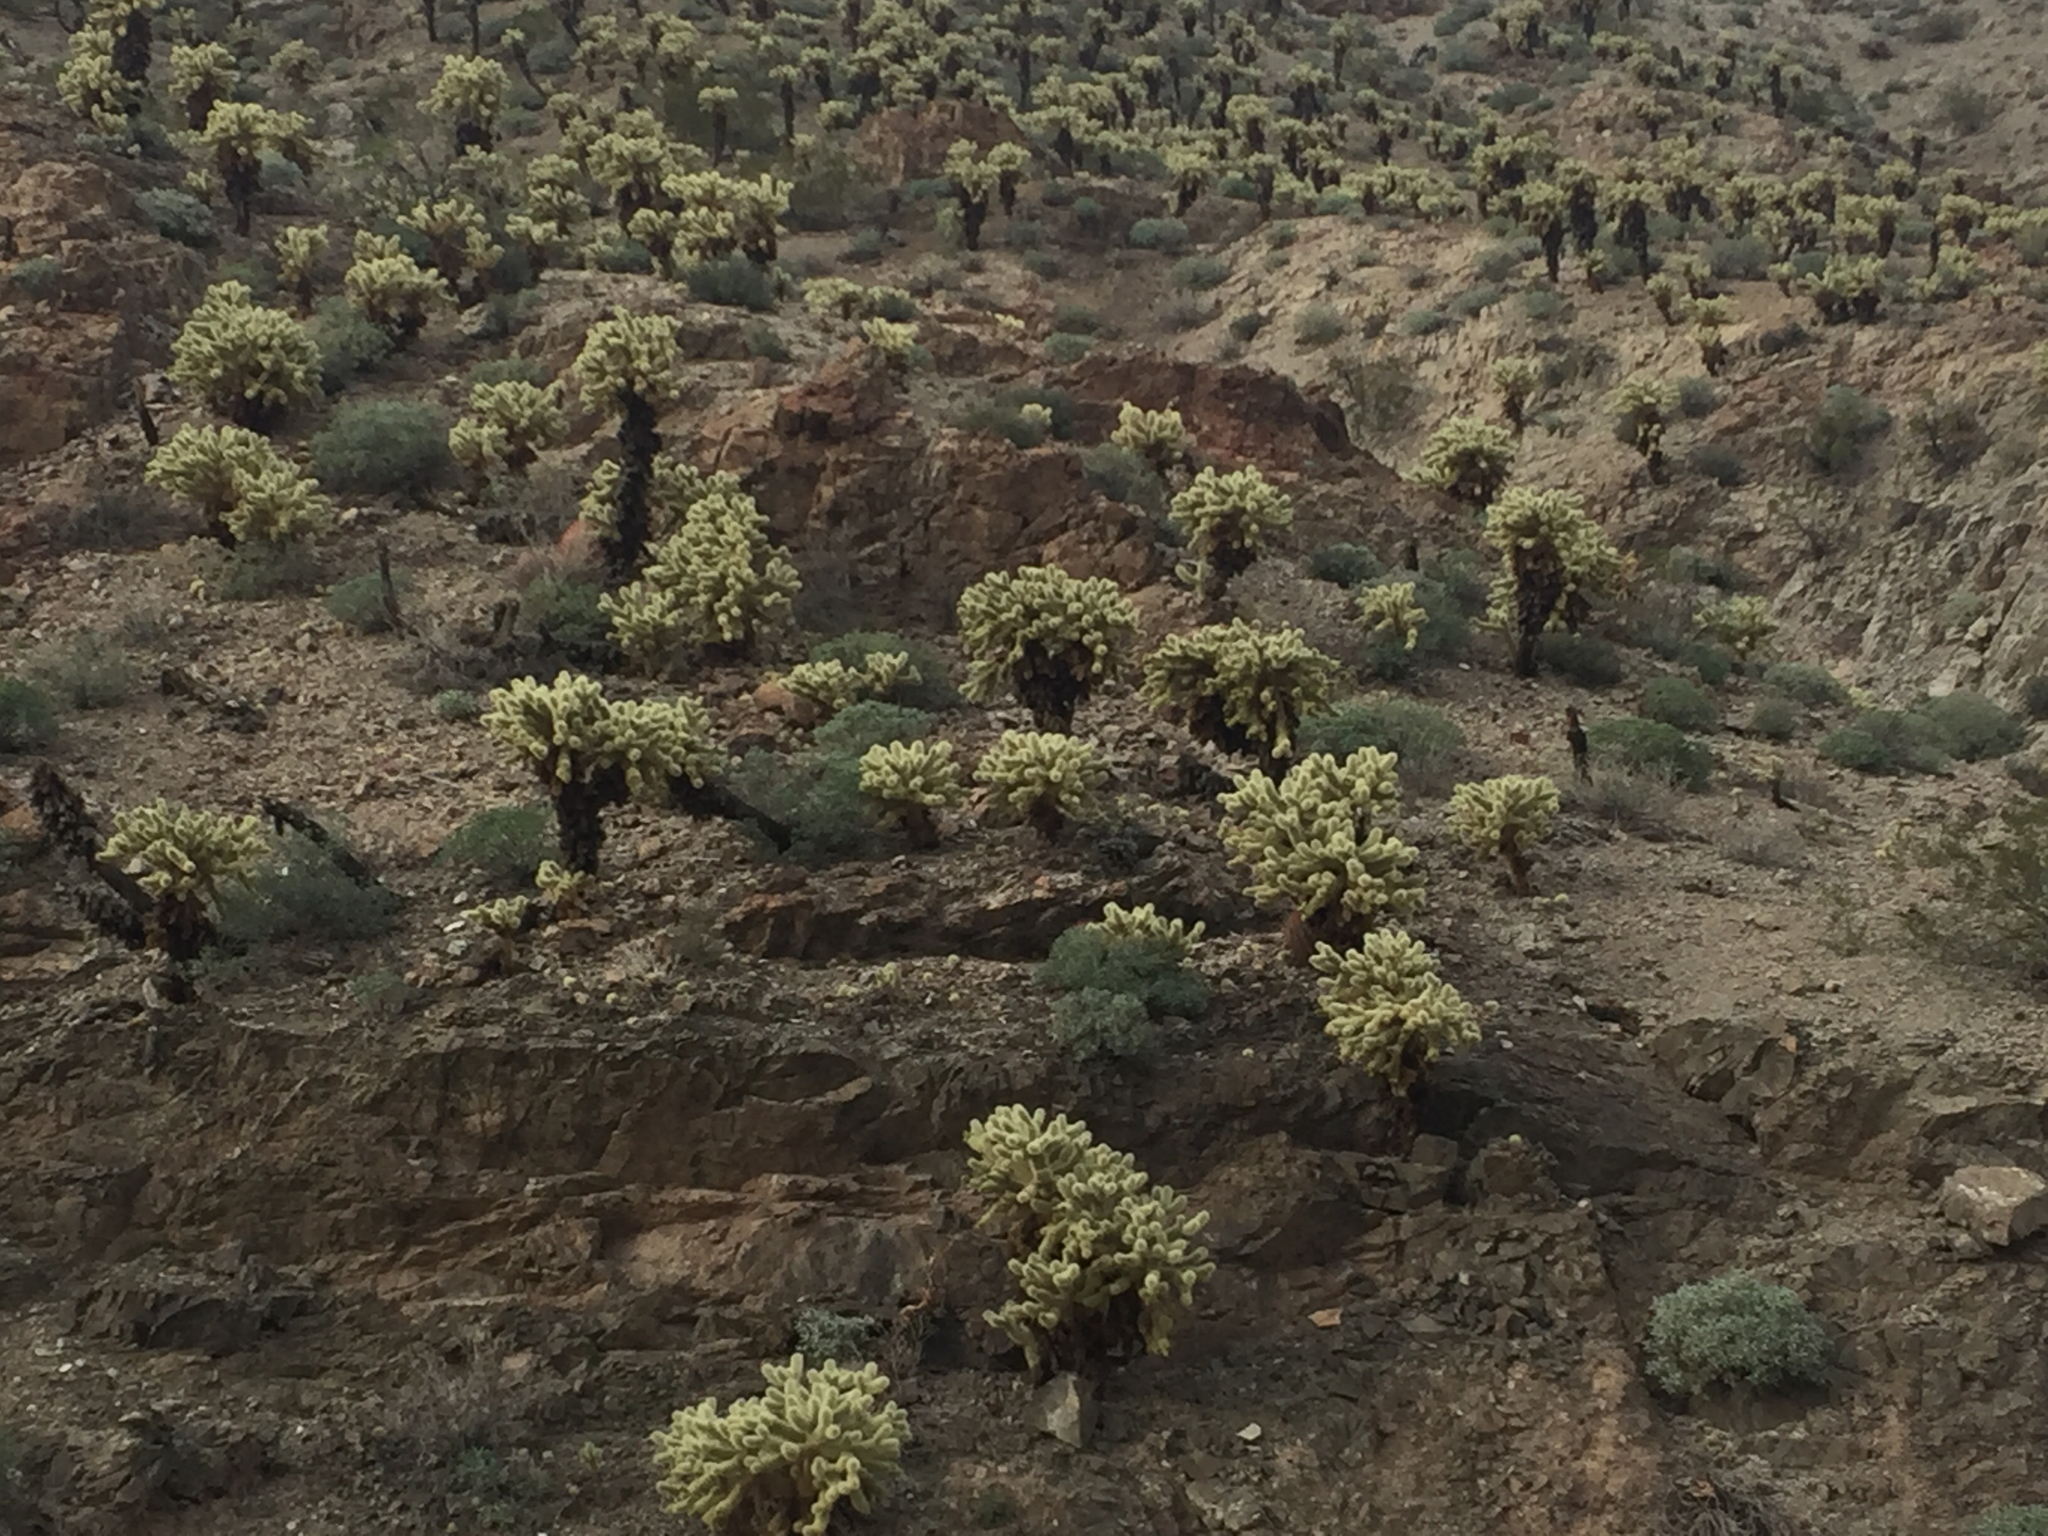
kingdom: Plantae
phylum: Tracheophyta
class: Magnoliopsida
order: Caryophyllales
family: Cactaceae
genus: Cylindropuntia
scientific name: Cylindropuntia fosbergii
